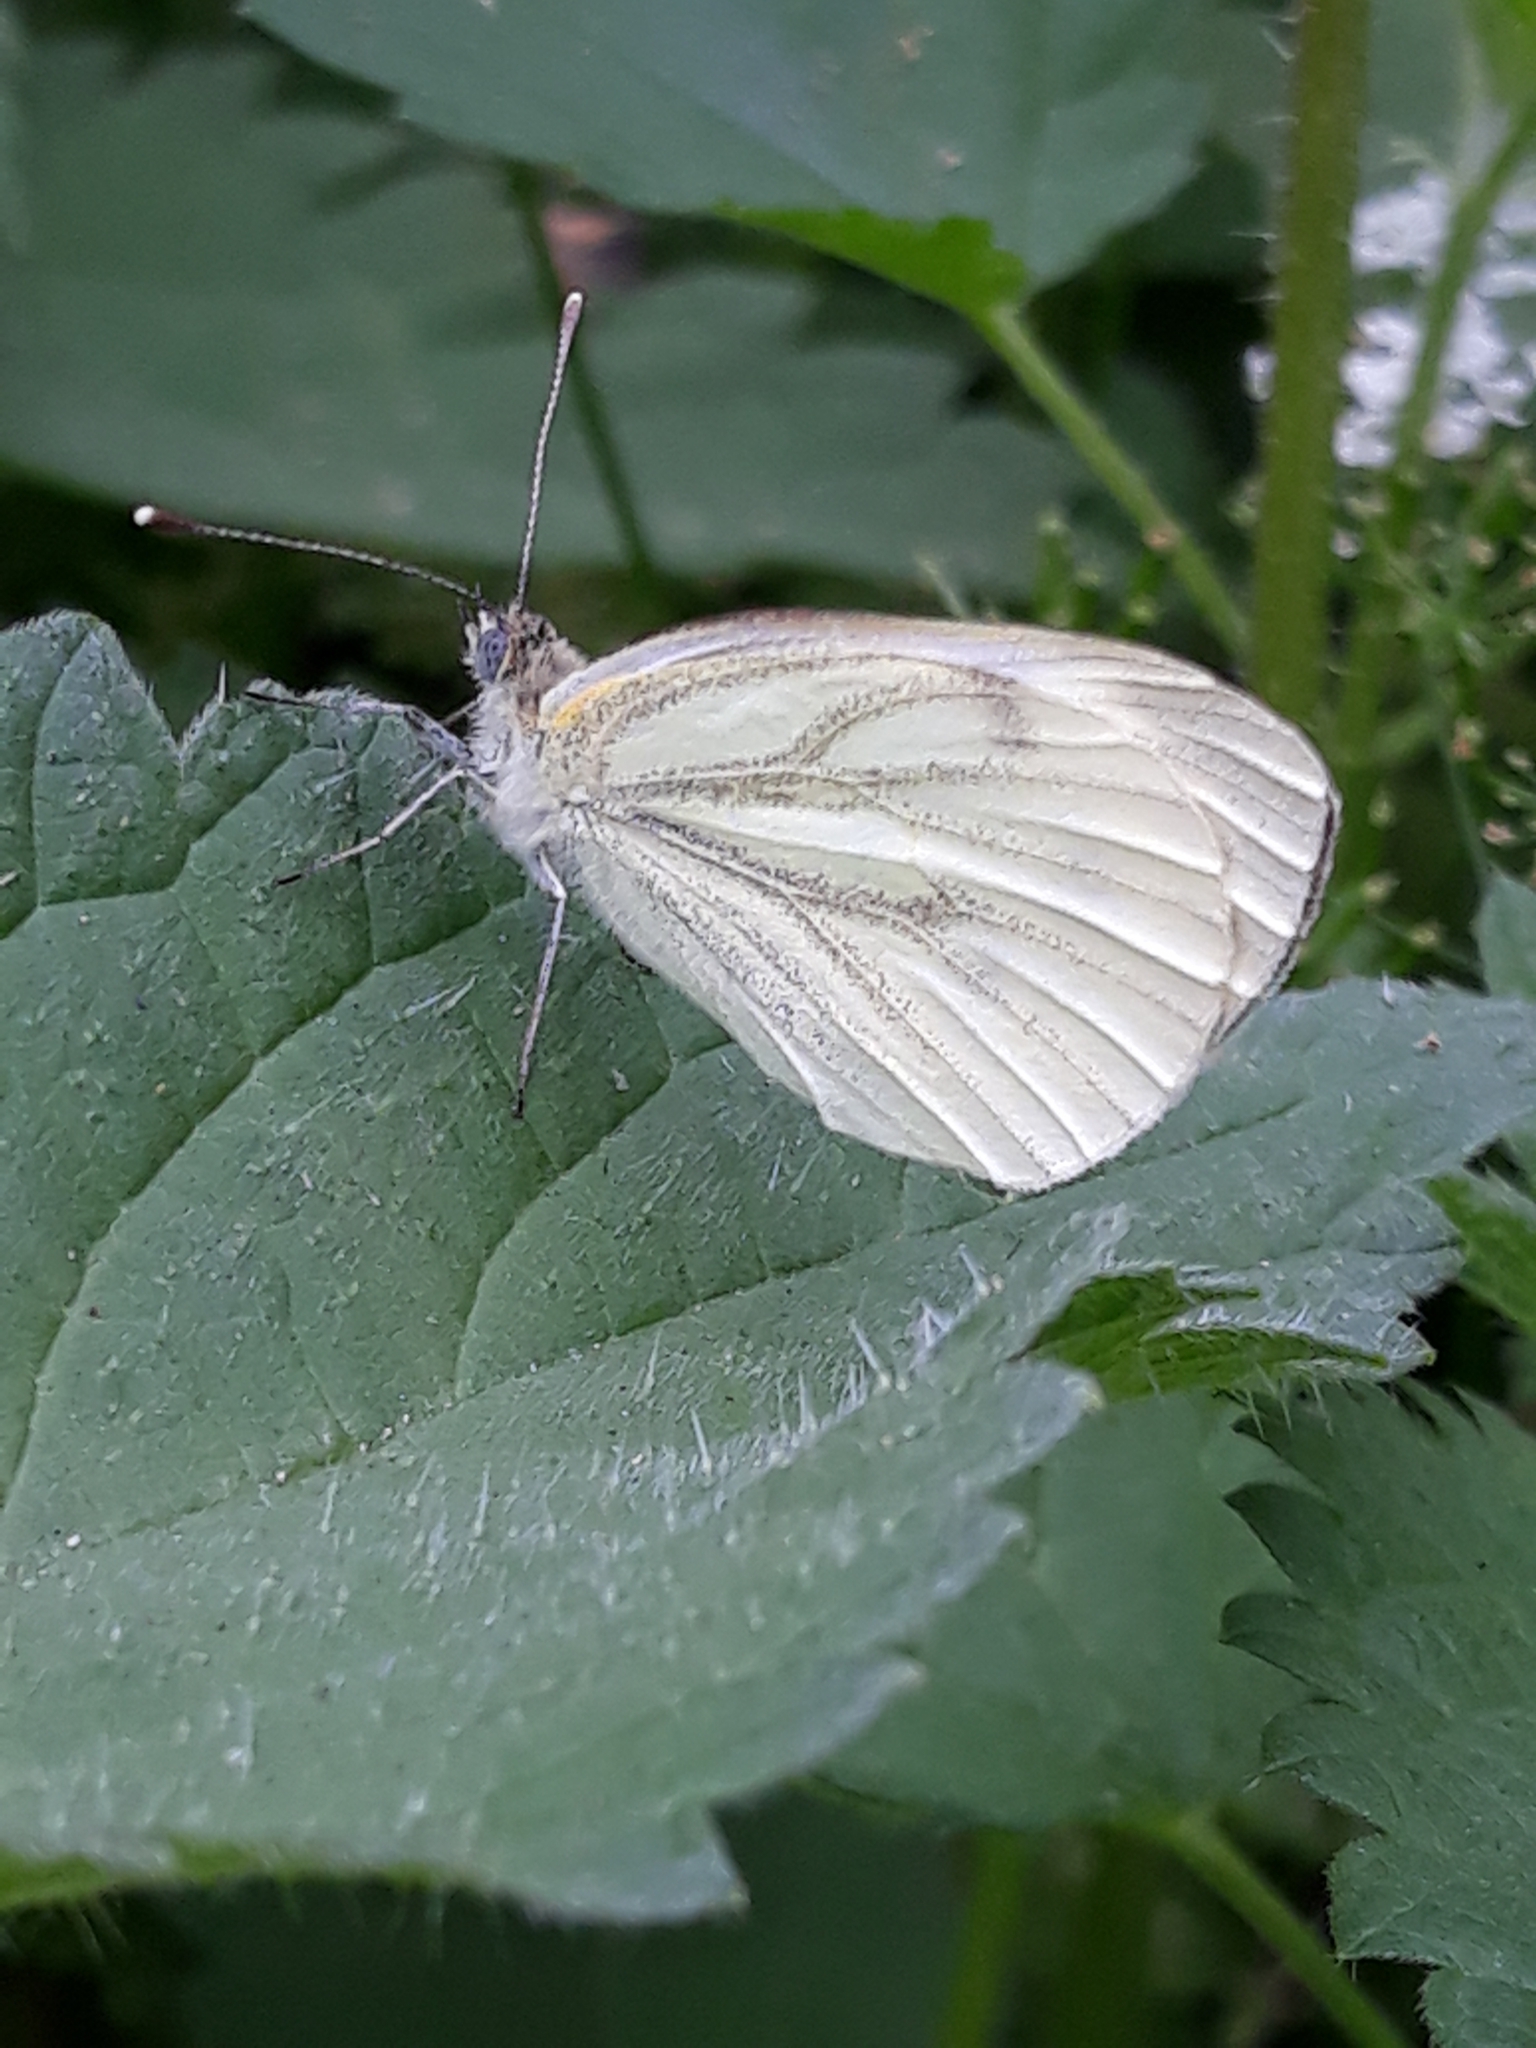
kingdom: Animalia
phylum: Arthropoda
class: Insecta
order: Lepidoptera
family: Pieridae
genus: Pieris
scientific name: Pieris napi
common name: Green-veined white
